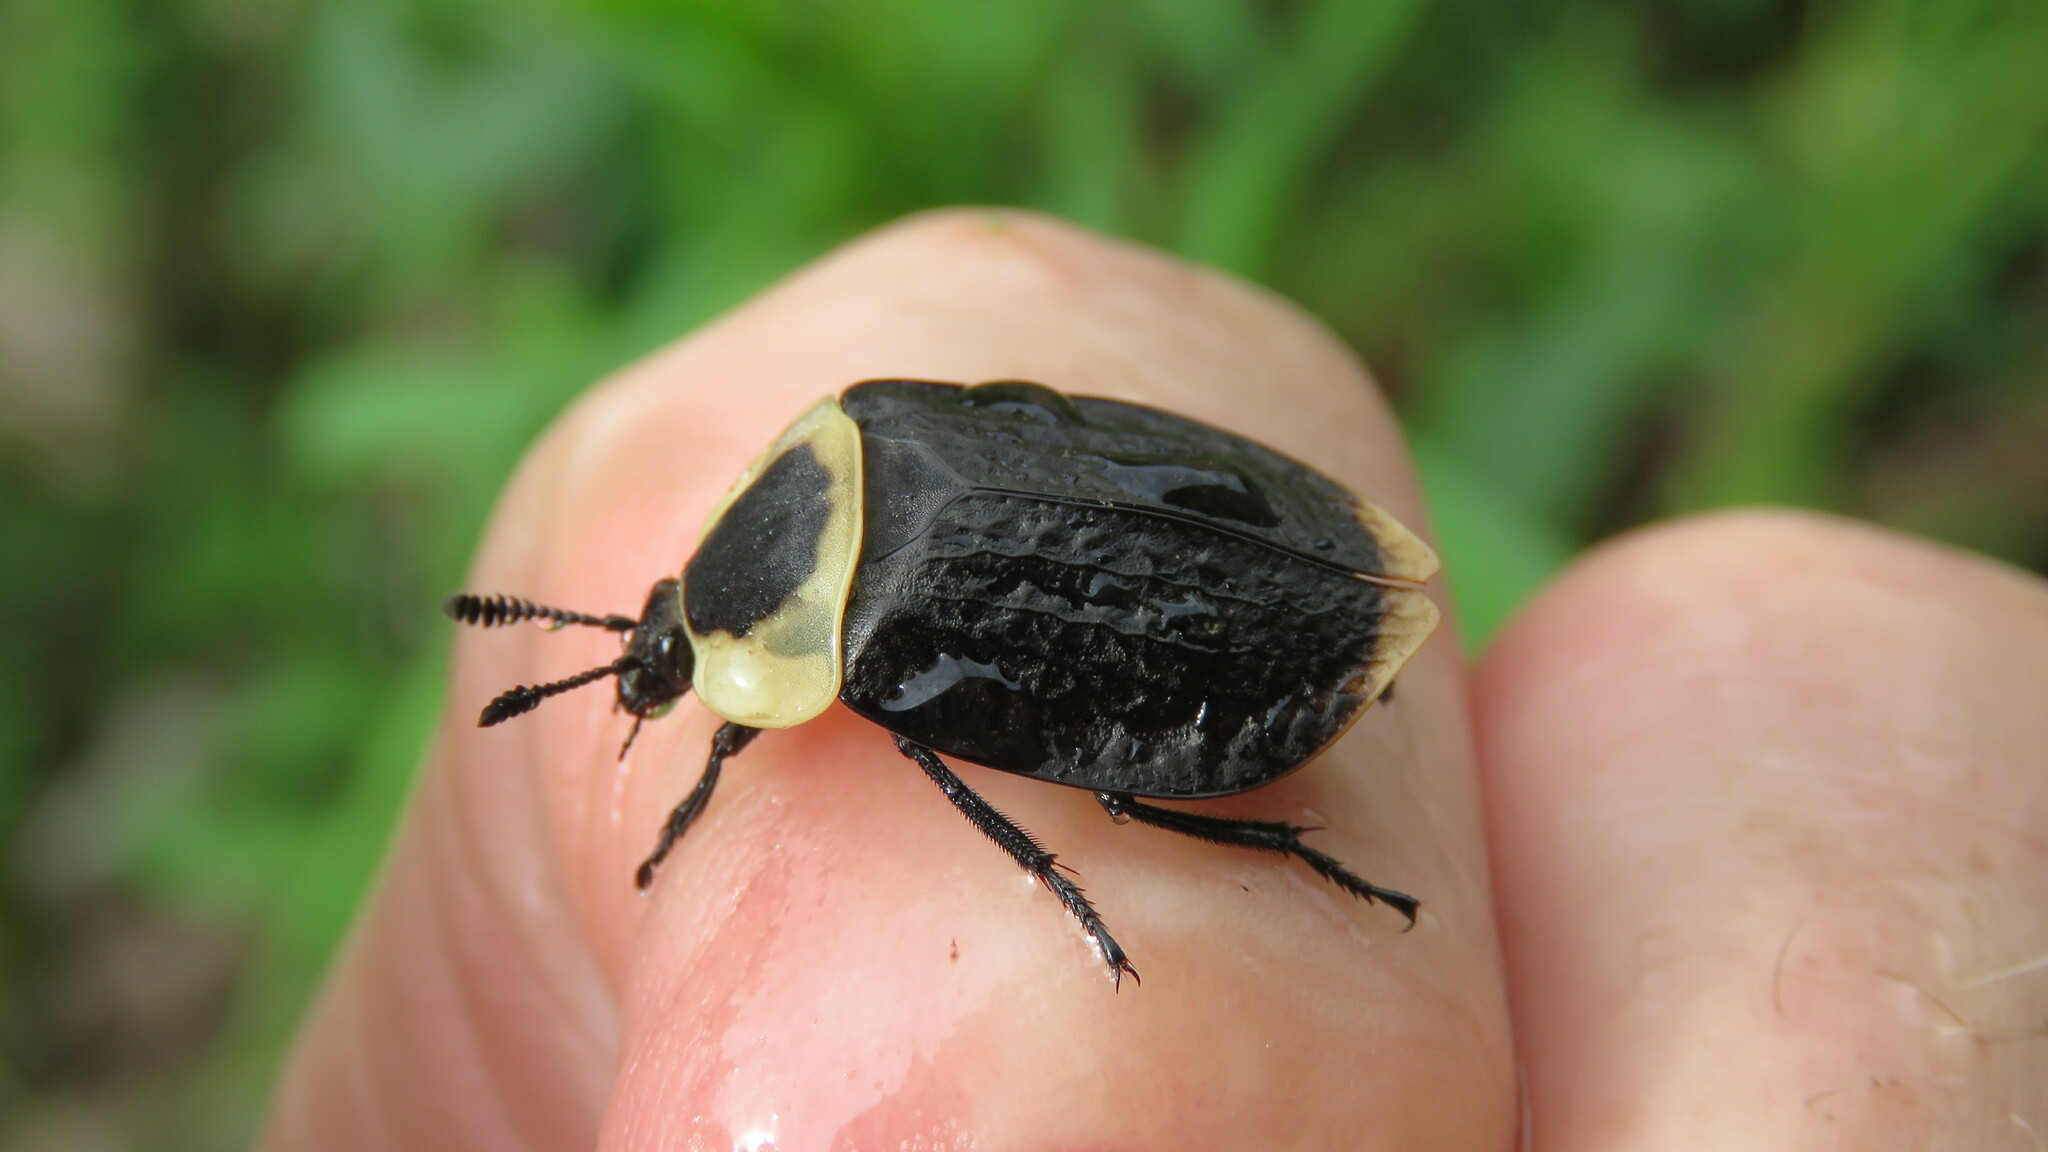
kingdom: Animalia
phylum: Arthropoda
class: Insecta
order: Coleoptera
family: Staphylinidae
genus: Necrophila
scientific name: Necrophila americana
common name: American carrion beetle
